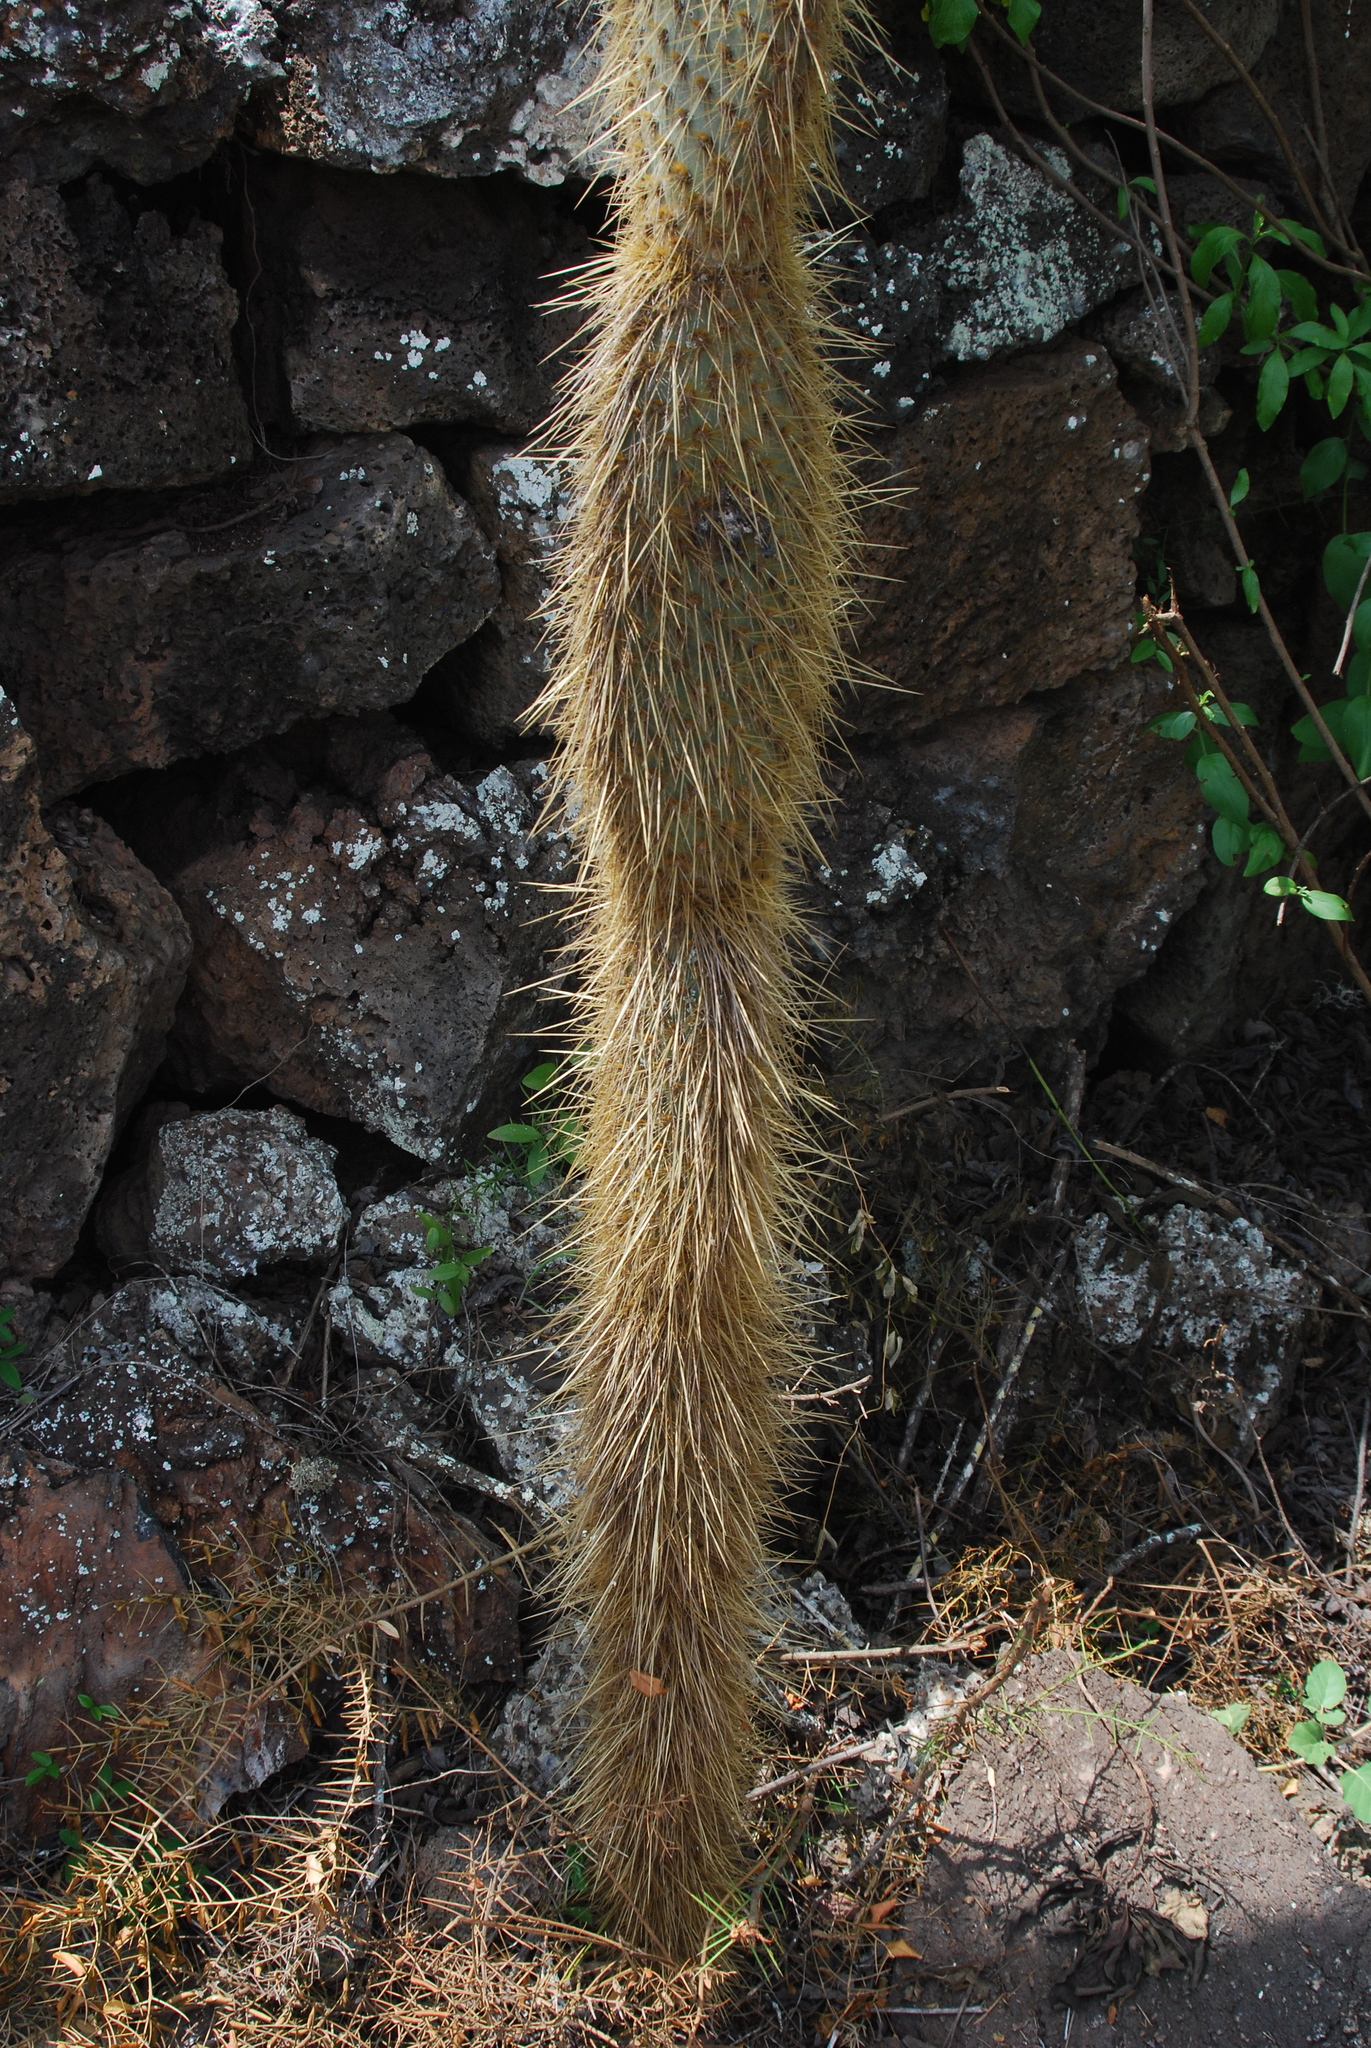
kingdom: Plantae
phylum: Tracheophyta
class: Magnoliopsida
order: Caryophyllales
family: Cactaceae
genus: Opuntia
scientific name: Opuntia galapageia
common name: Galápagos prickly pear
